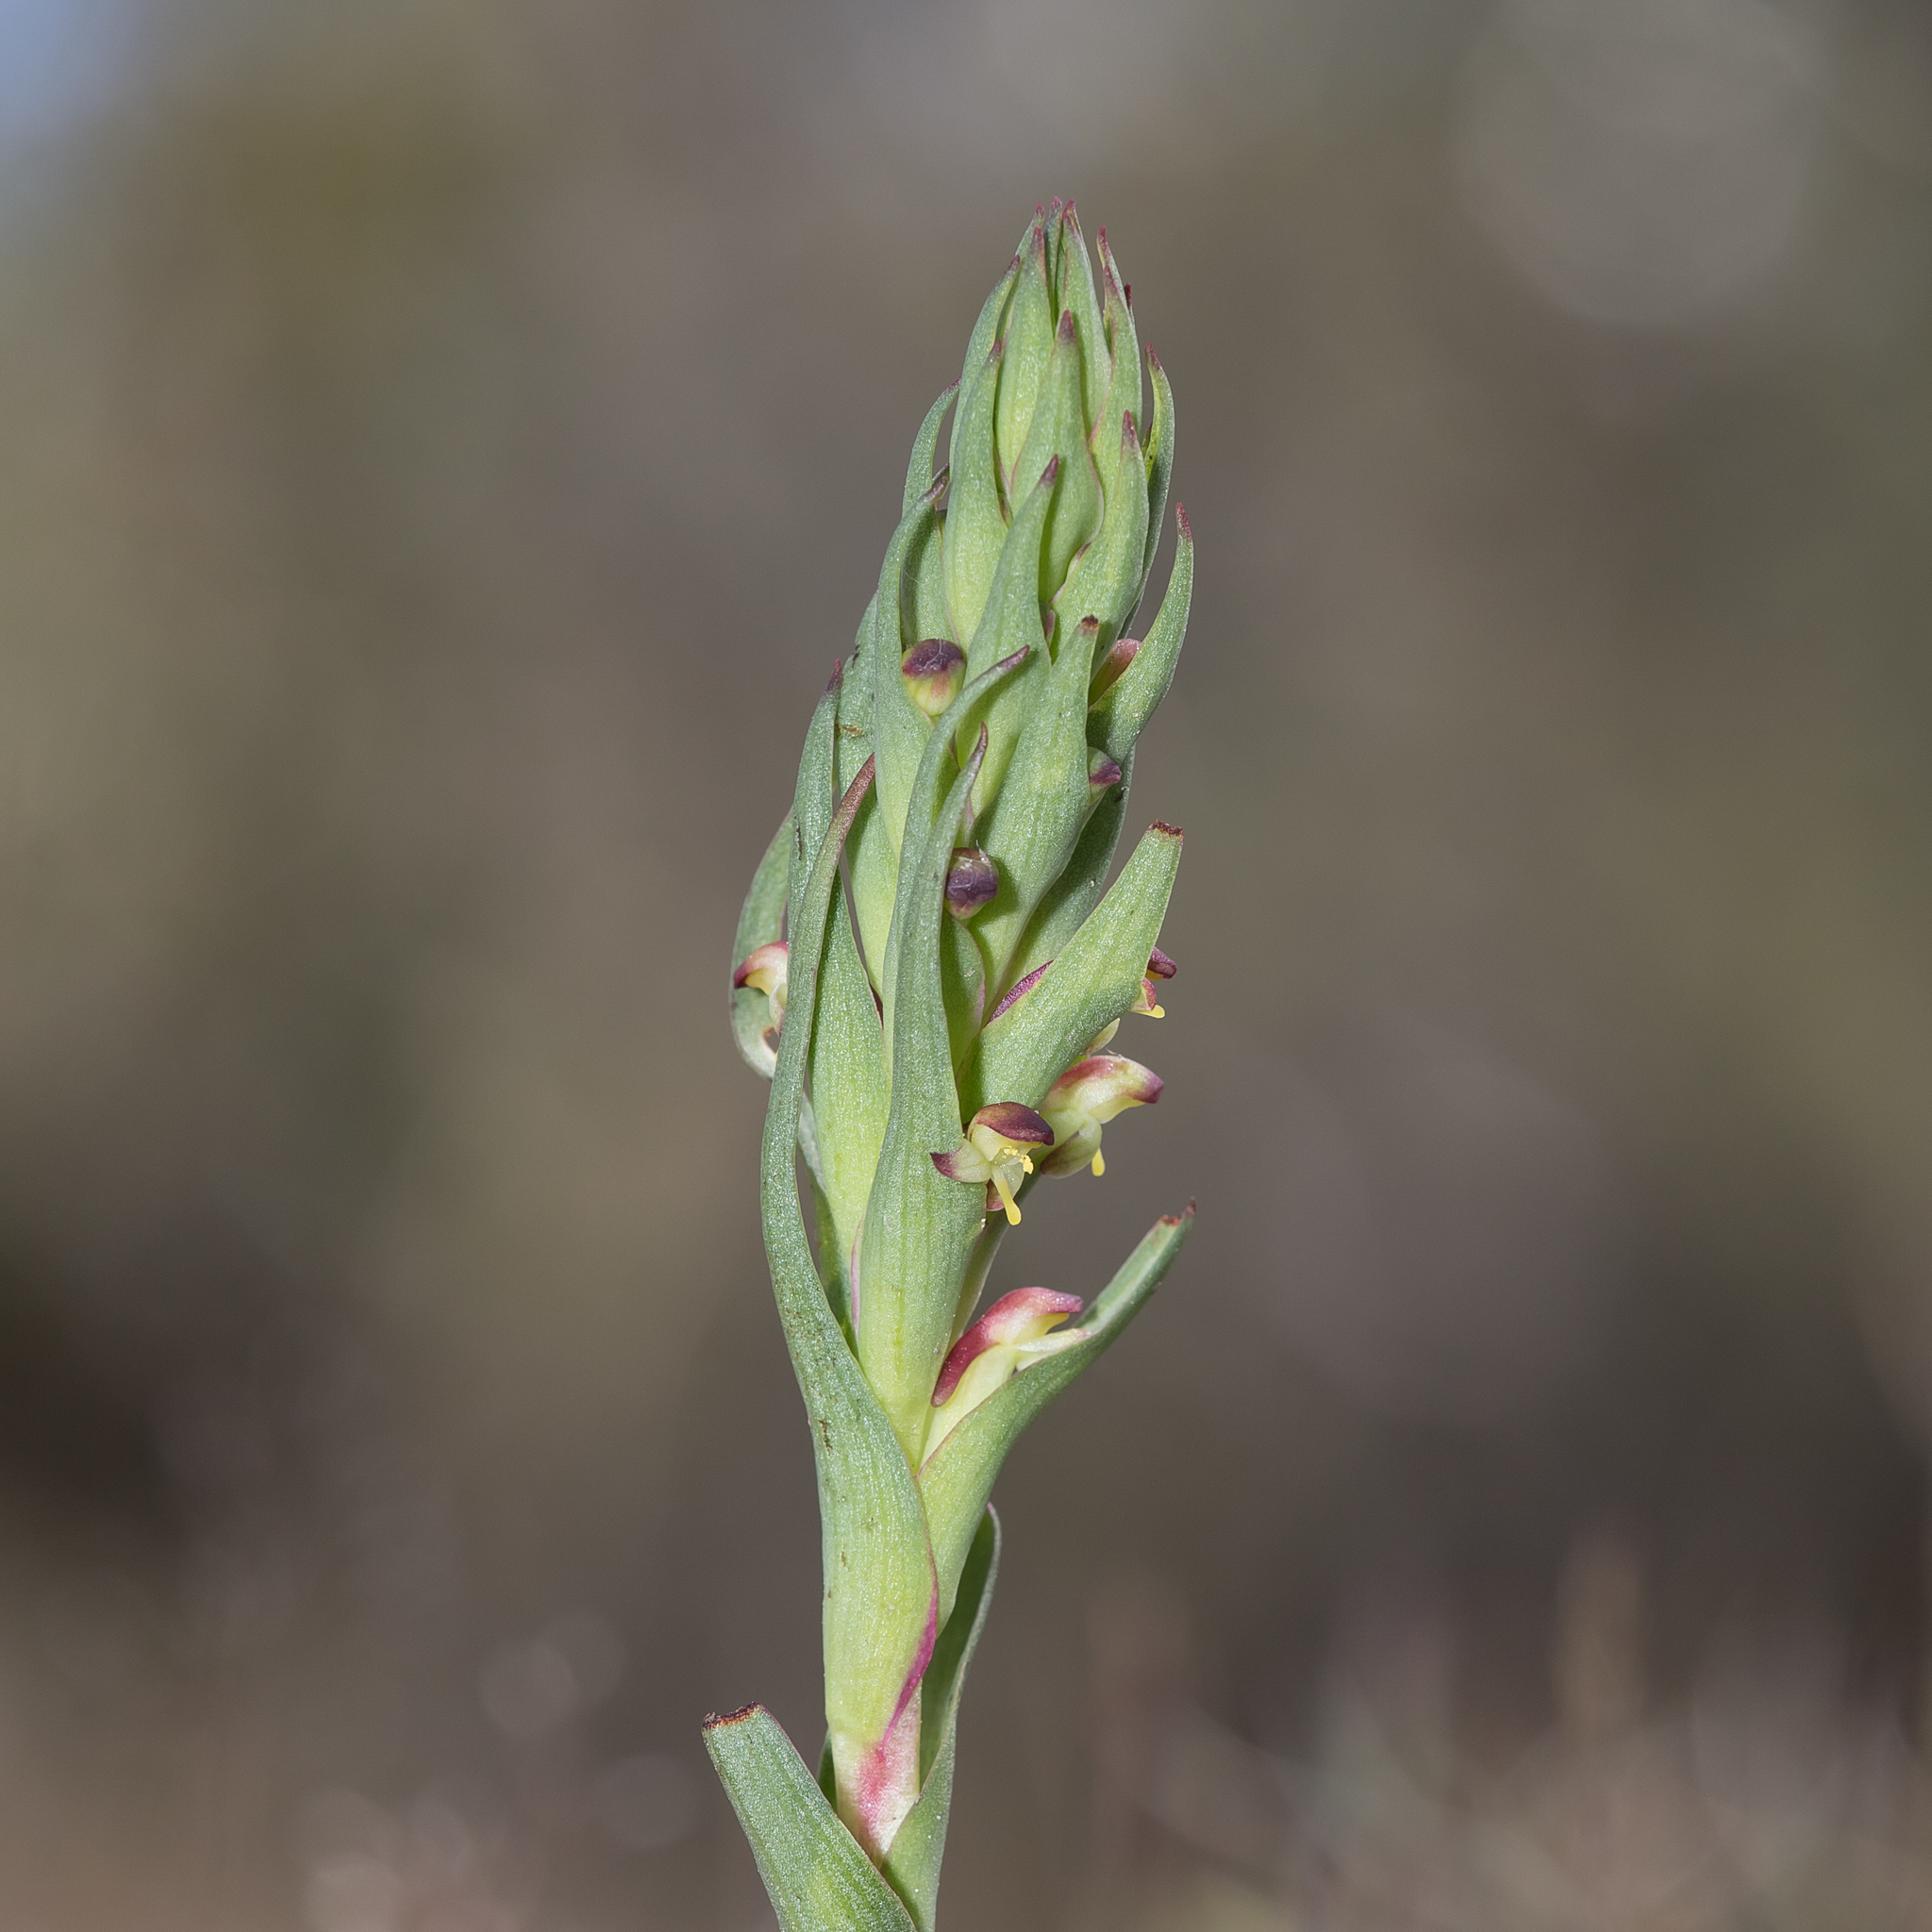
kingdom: Plantae
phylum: Tracheophyta
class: Liliopsida
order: Asparagales
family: Orchidaceae
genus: Disa
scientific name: Disa bracteata
